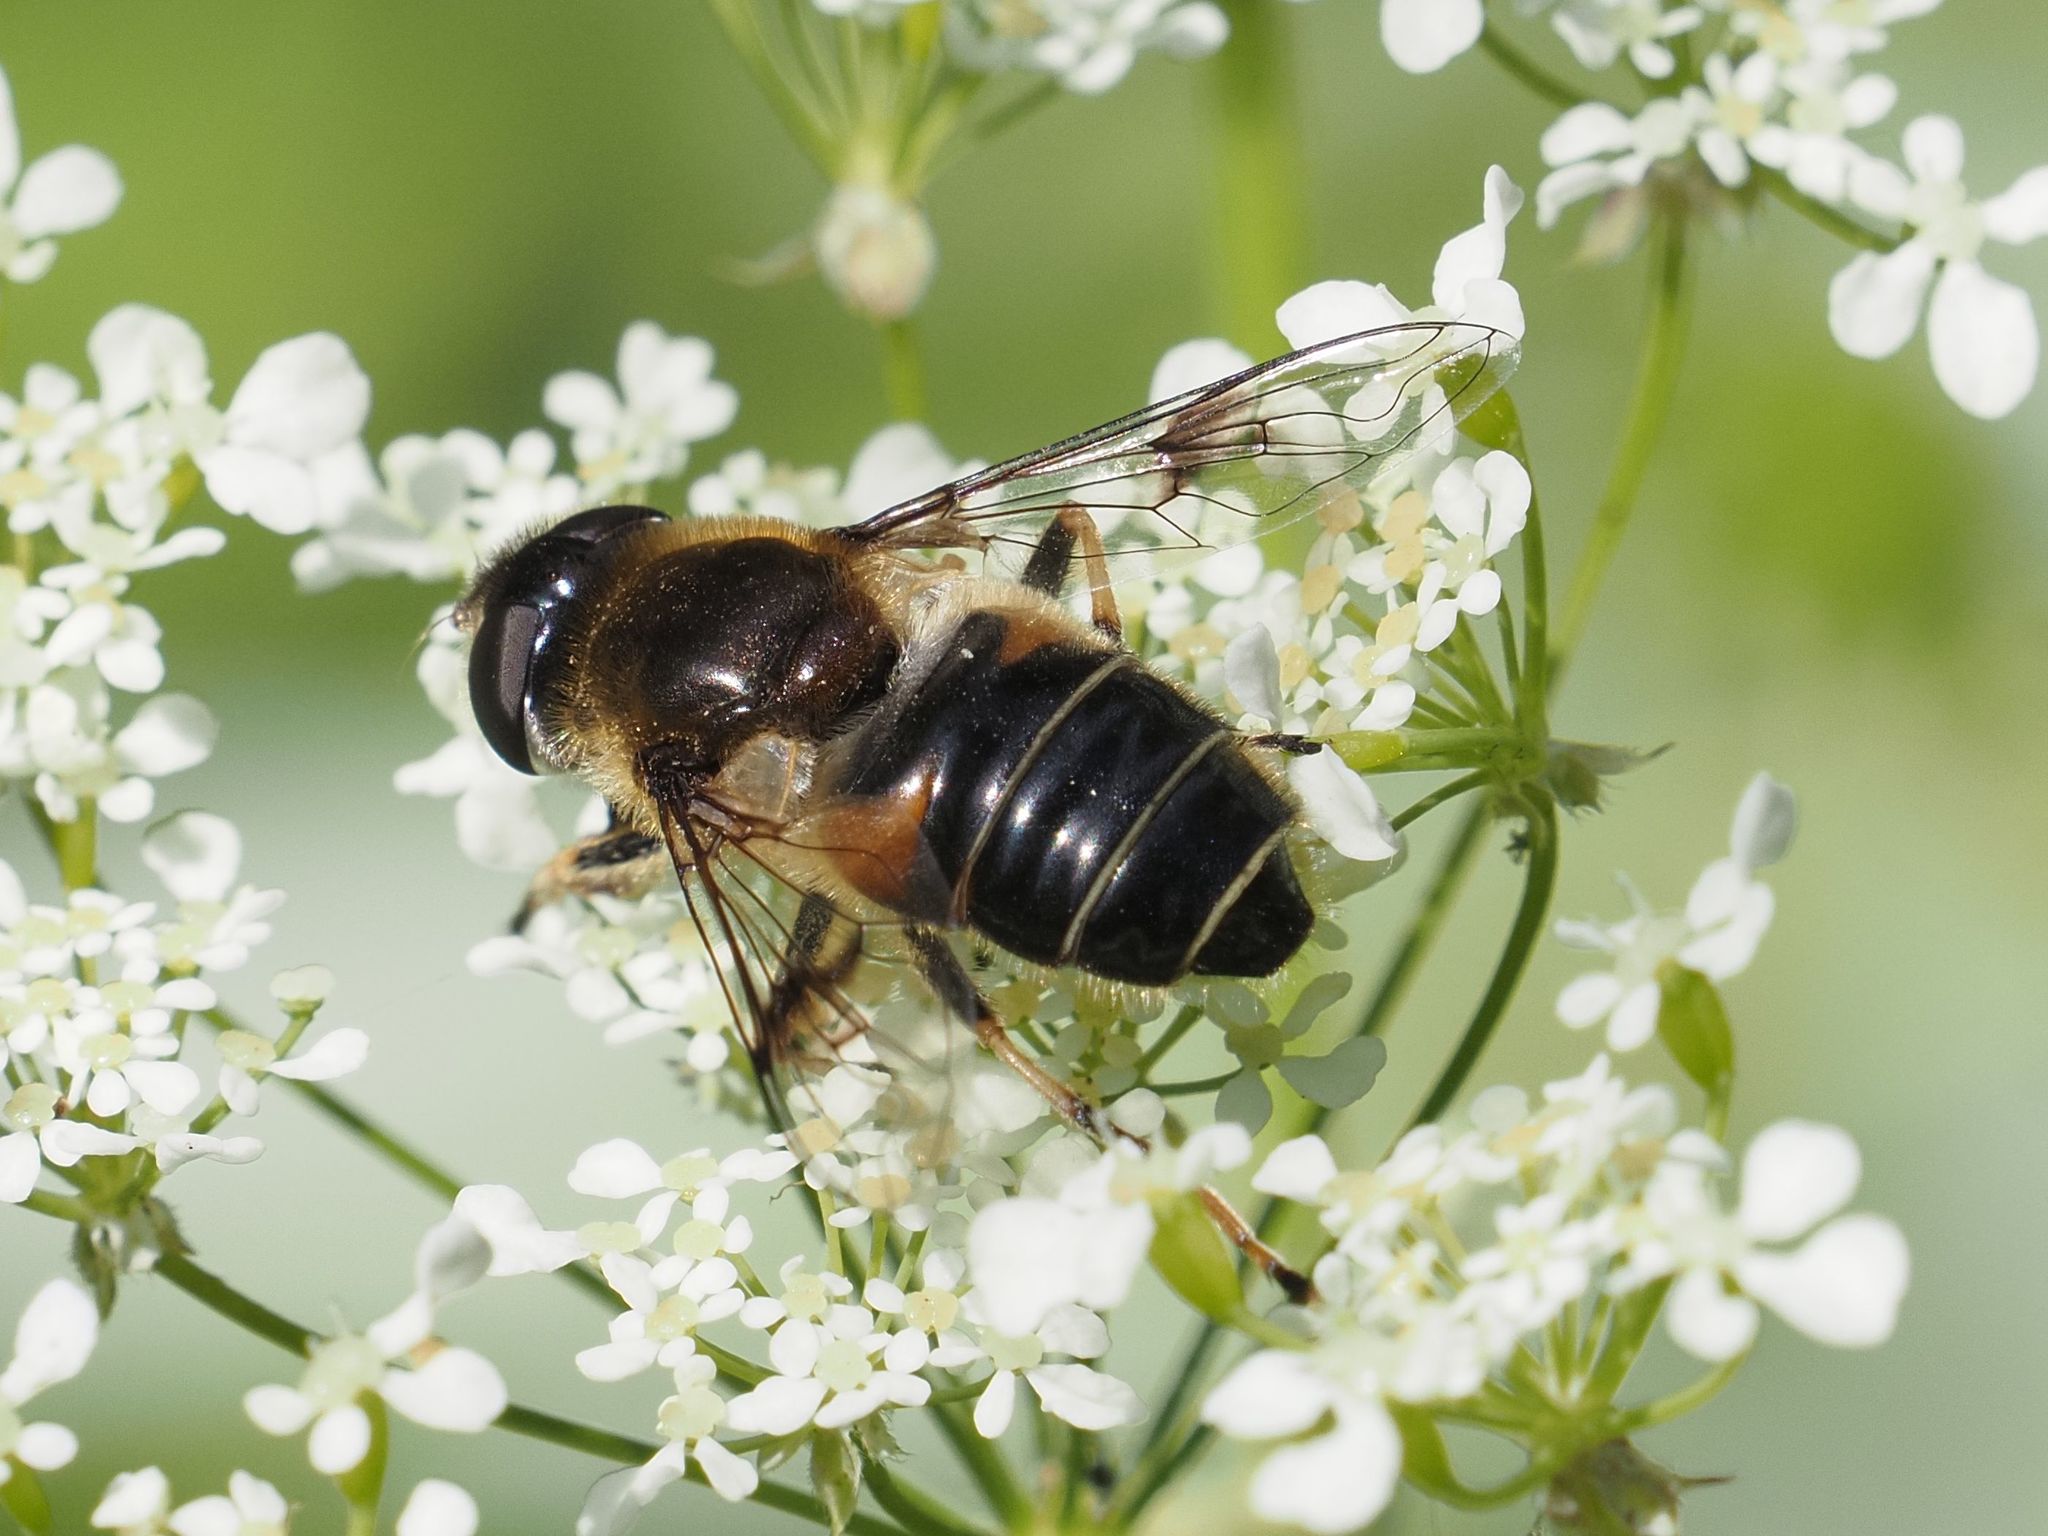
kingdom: Animalia
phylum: Arthropoda
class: Insecta
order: Diptera
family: Syrphidae
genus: Eristalis
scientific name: Eristalis rupium
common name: Hover fly
